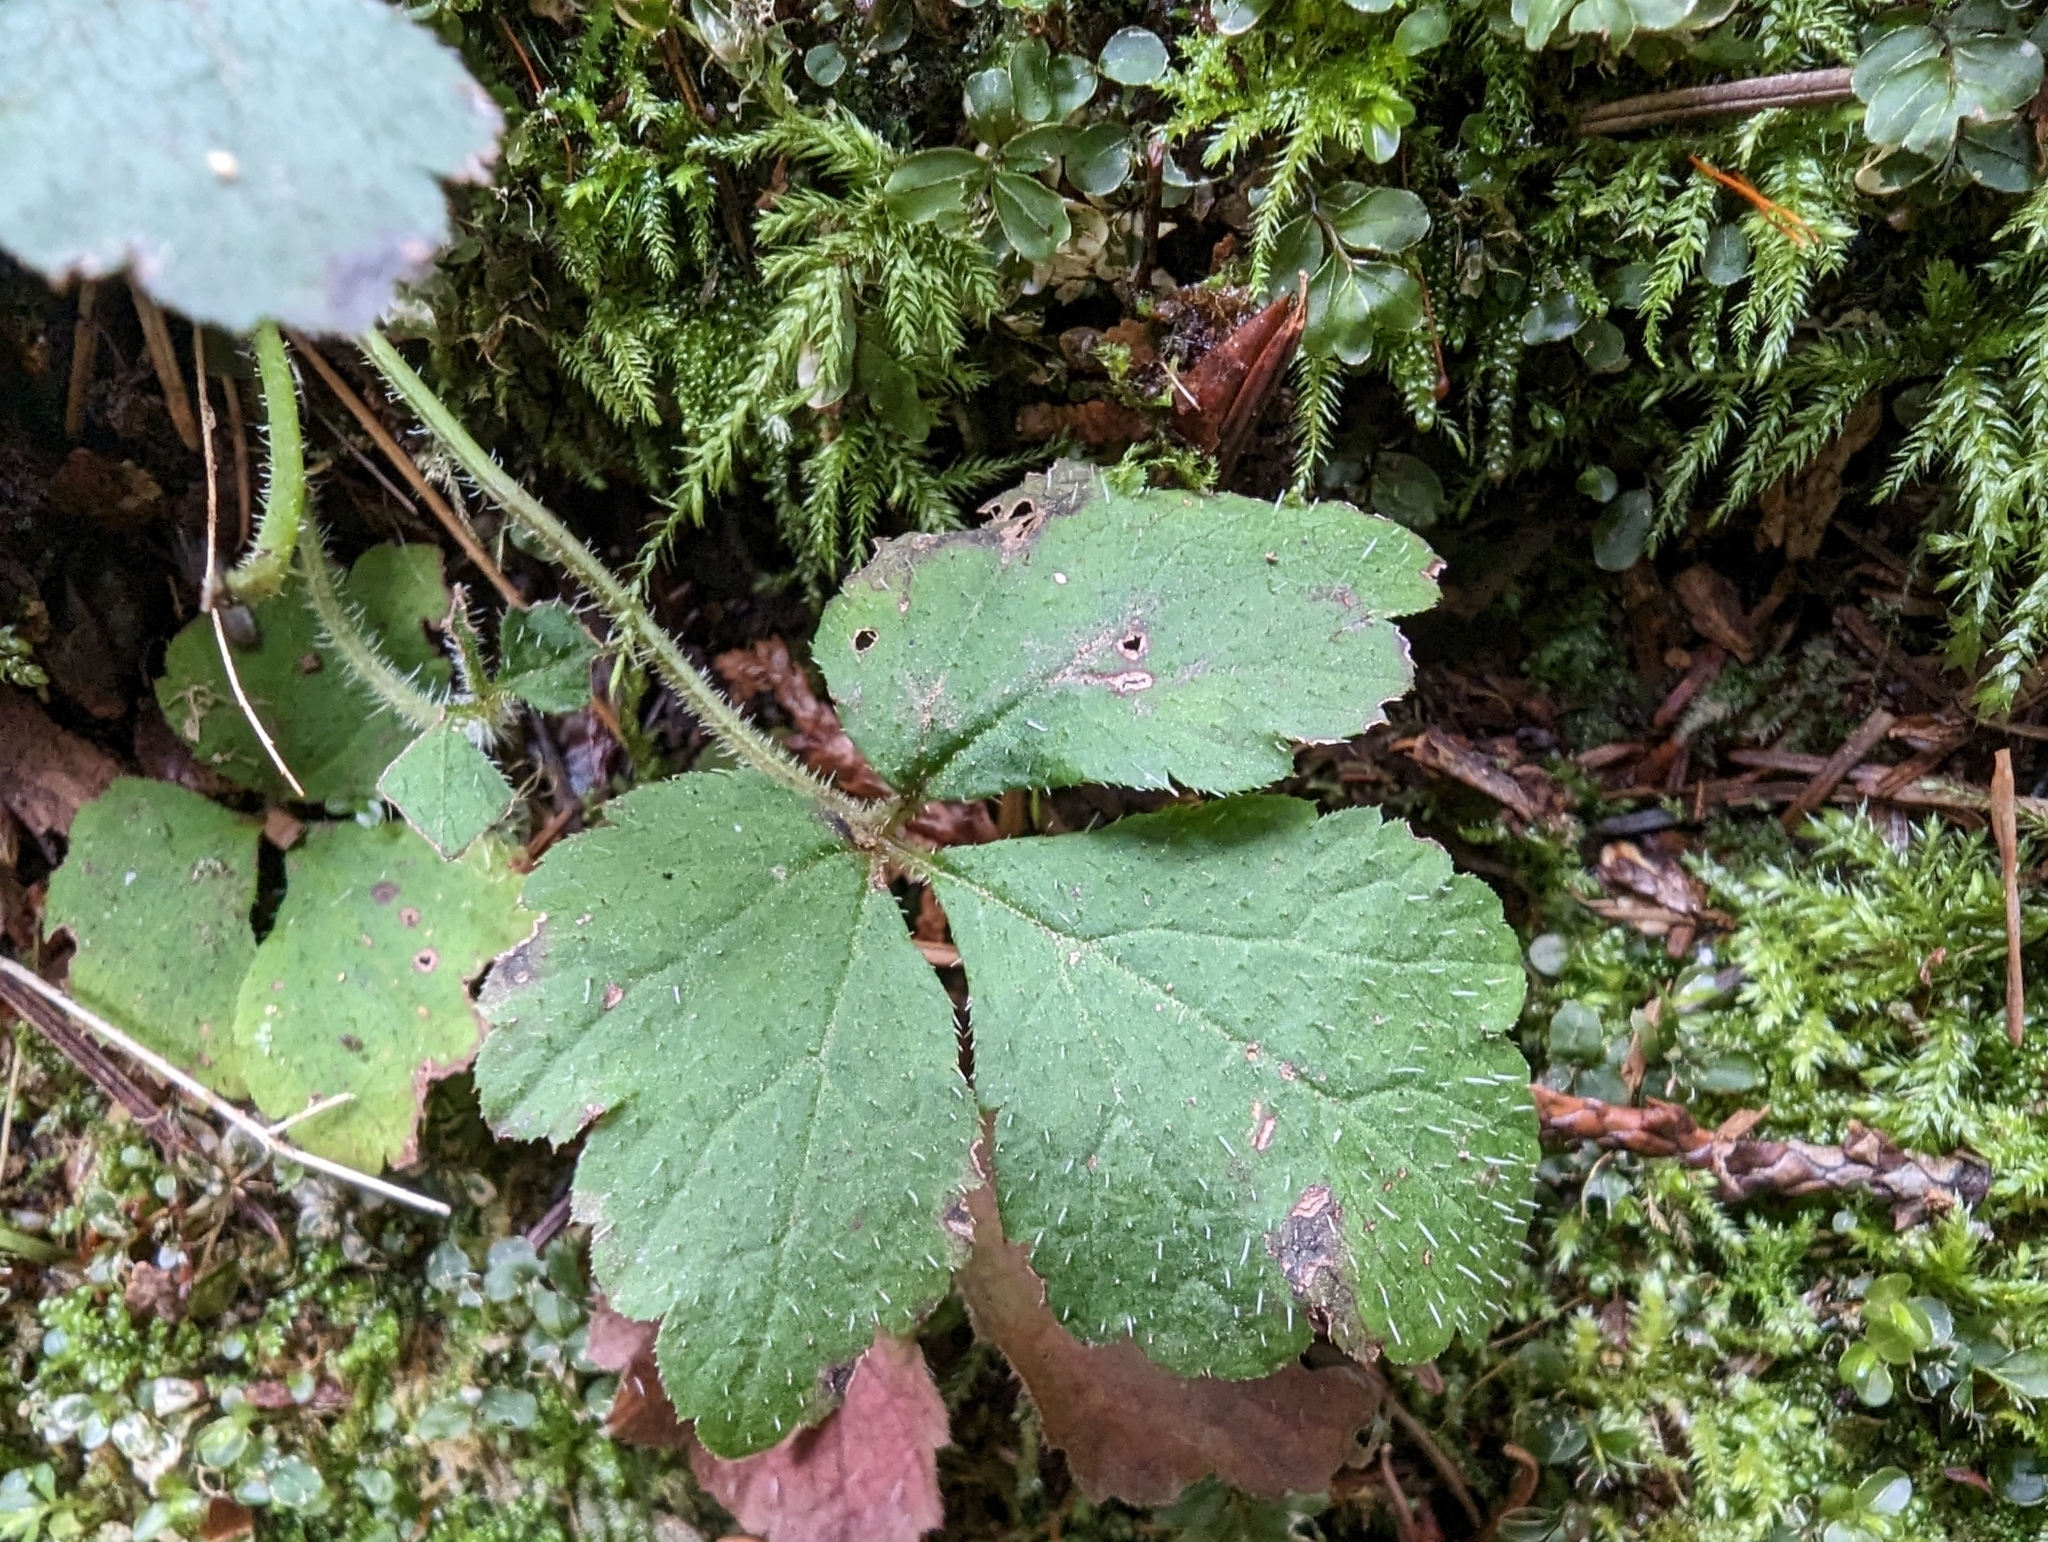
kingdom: Plantae
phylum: Tracheophyta
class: Magnoliopsida
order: Saxifragales
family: Saxifragaceae
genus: Tiarella
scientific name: Tiarella trifoliata
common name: Sugar-scoop
